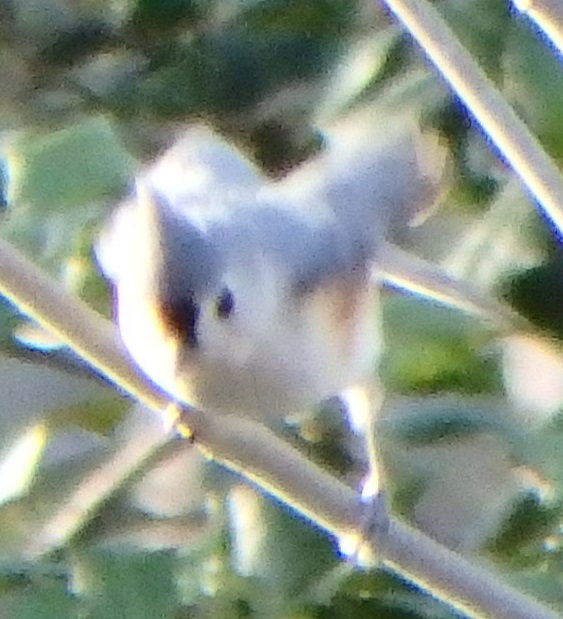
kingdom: Animalia
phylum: Chordata
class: Aves
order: Passeriformes
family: Paridae
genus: Baeolophus
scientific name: Baeolophus bicolor
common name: Tufted titmouse
